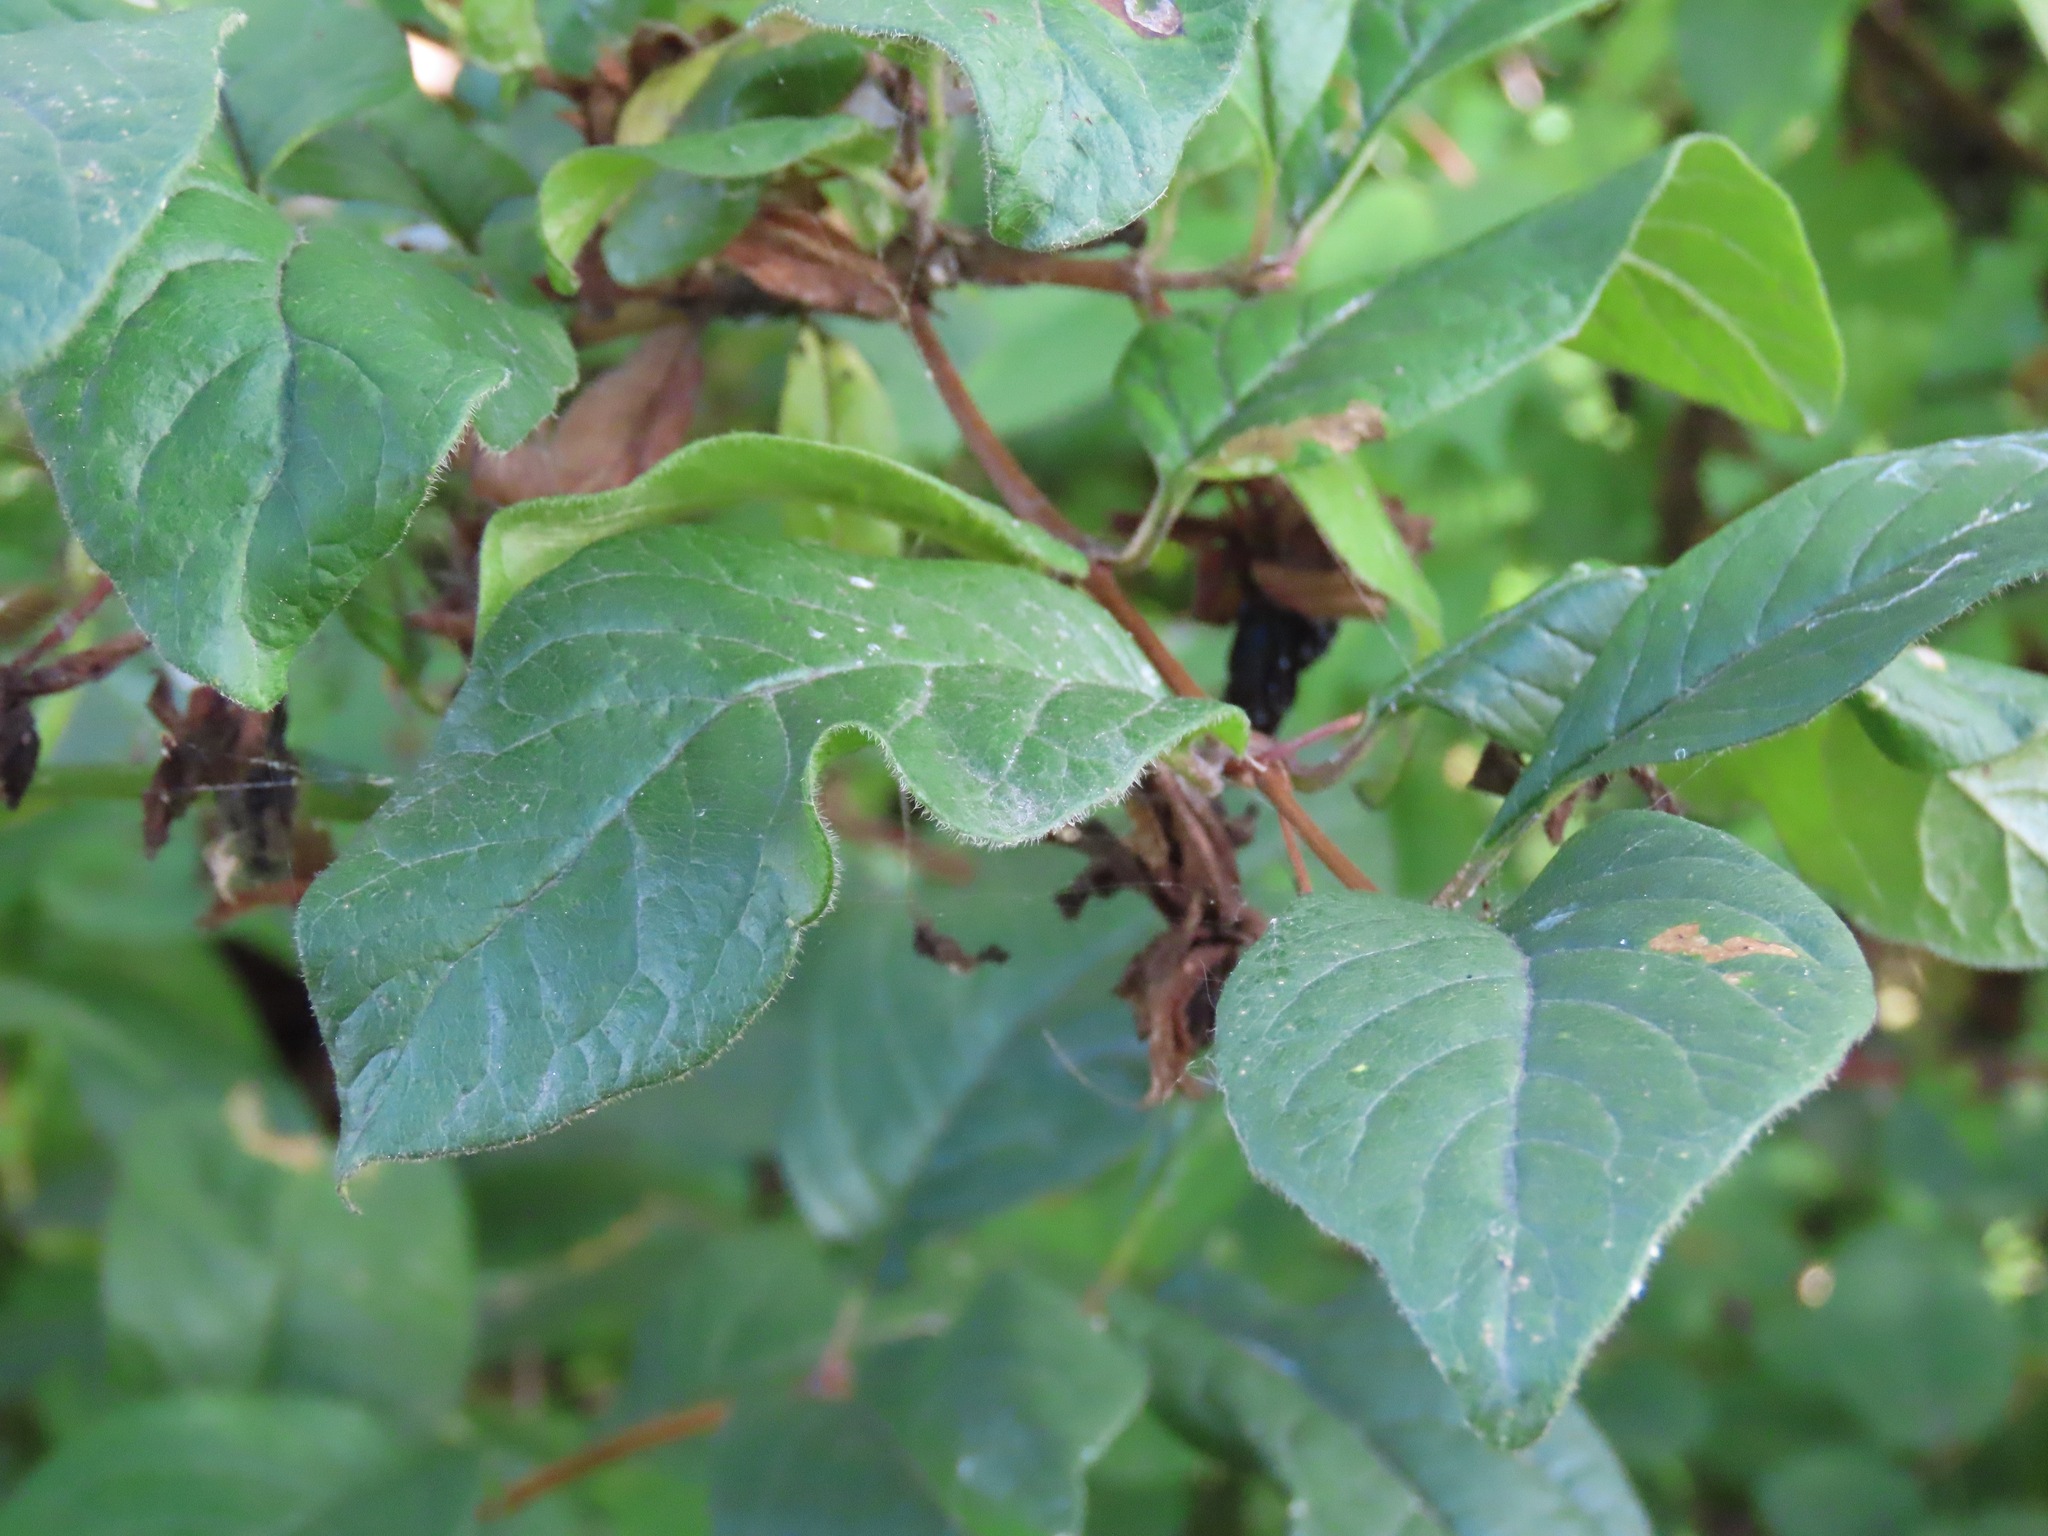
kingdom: Plantae
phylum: Tracheophyta
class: Magnoliopsida
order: Dipsacales
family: Caprifoliaceae
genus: Lonicera
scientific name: Lonicera involucrata
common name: Californian honeysuckle
